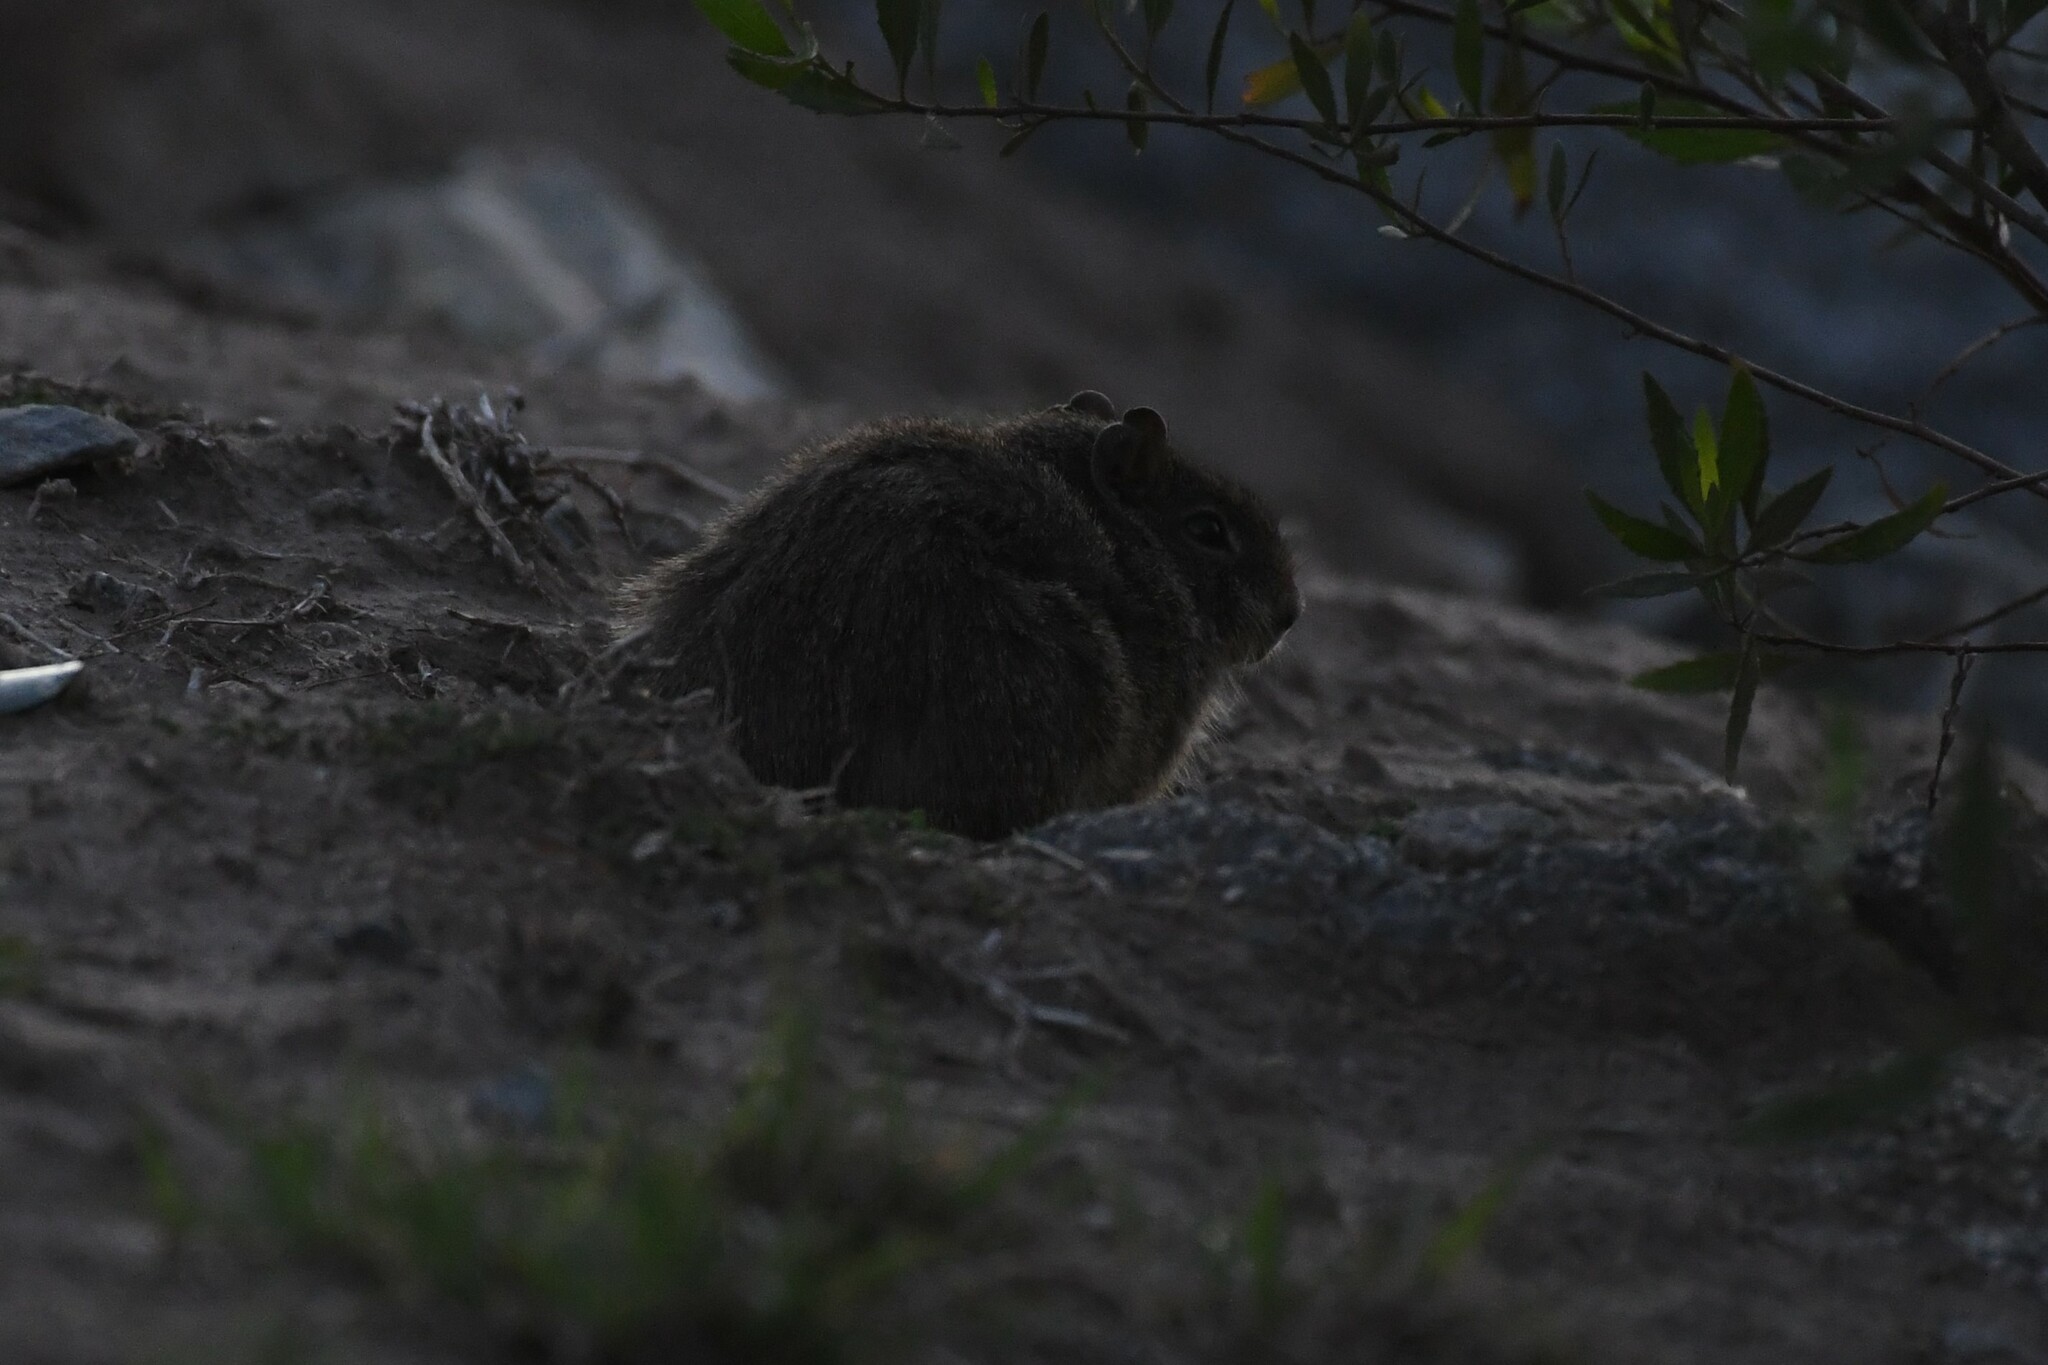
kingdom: Animalia
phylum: Chordata
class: Mammalia
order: Rodentia
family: Caviidae
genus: Galea
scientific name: Galea musteloides
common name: Common yellow-toothed cavy
